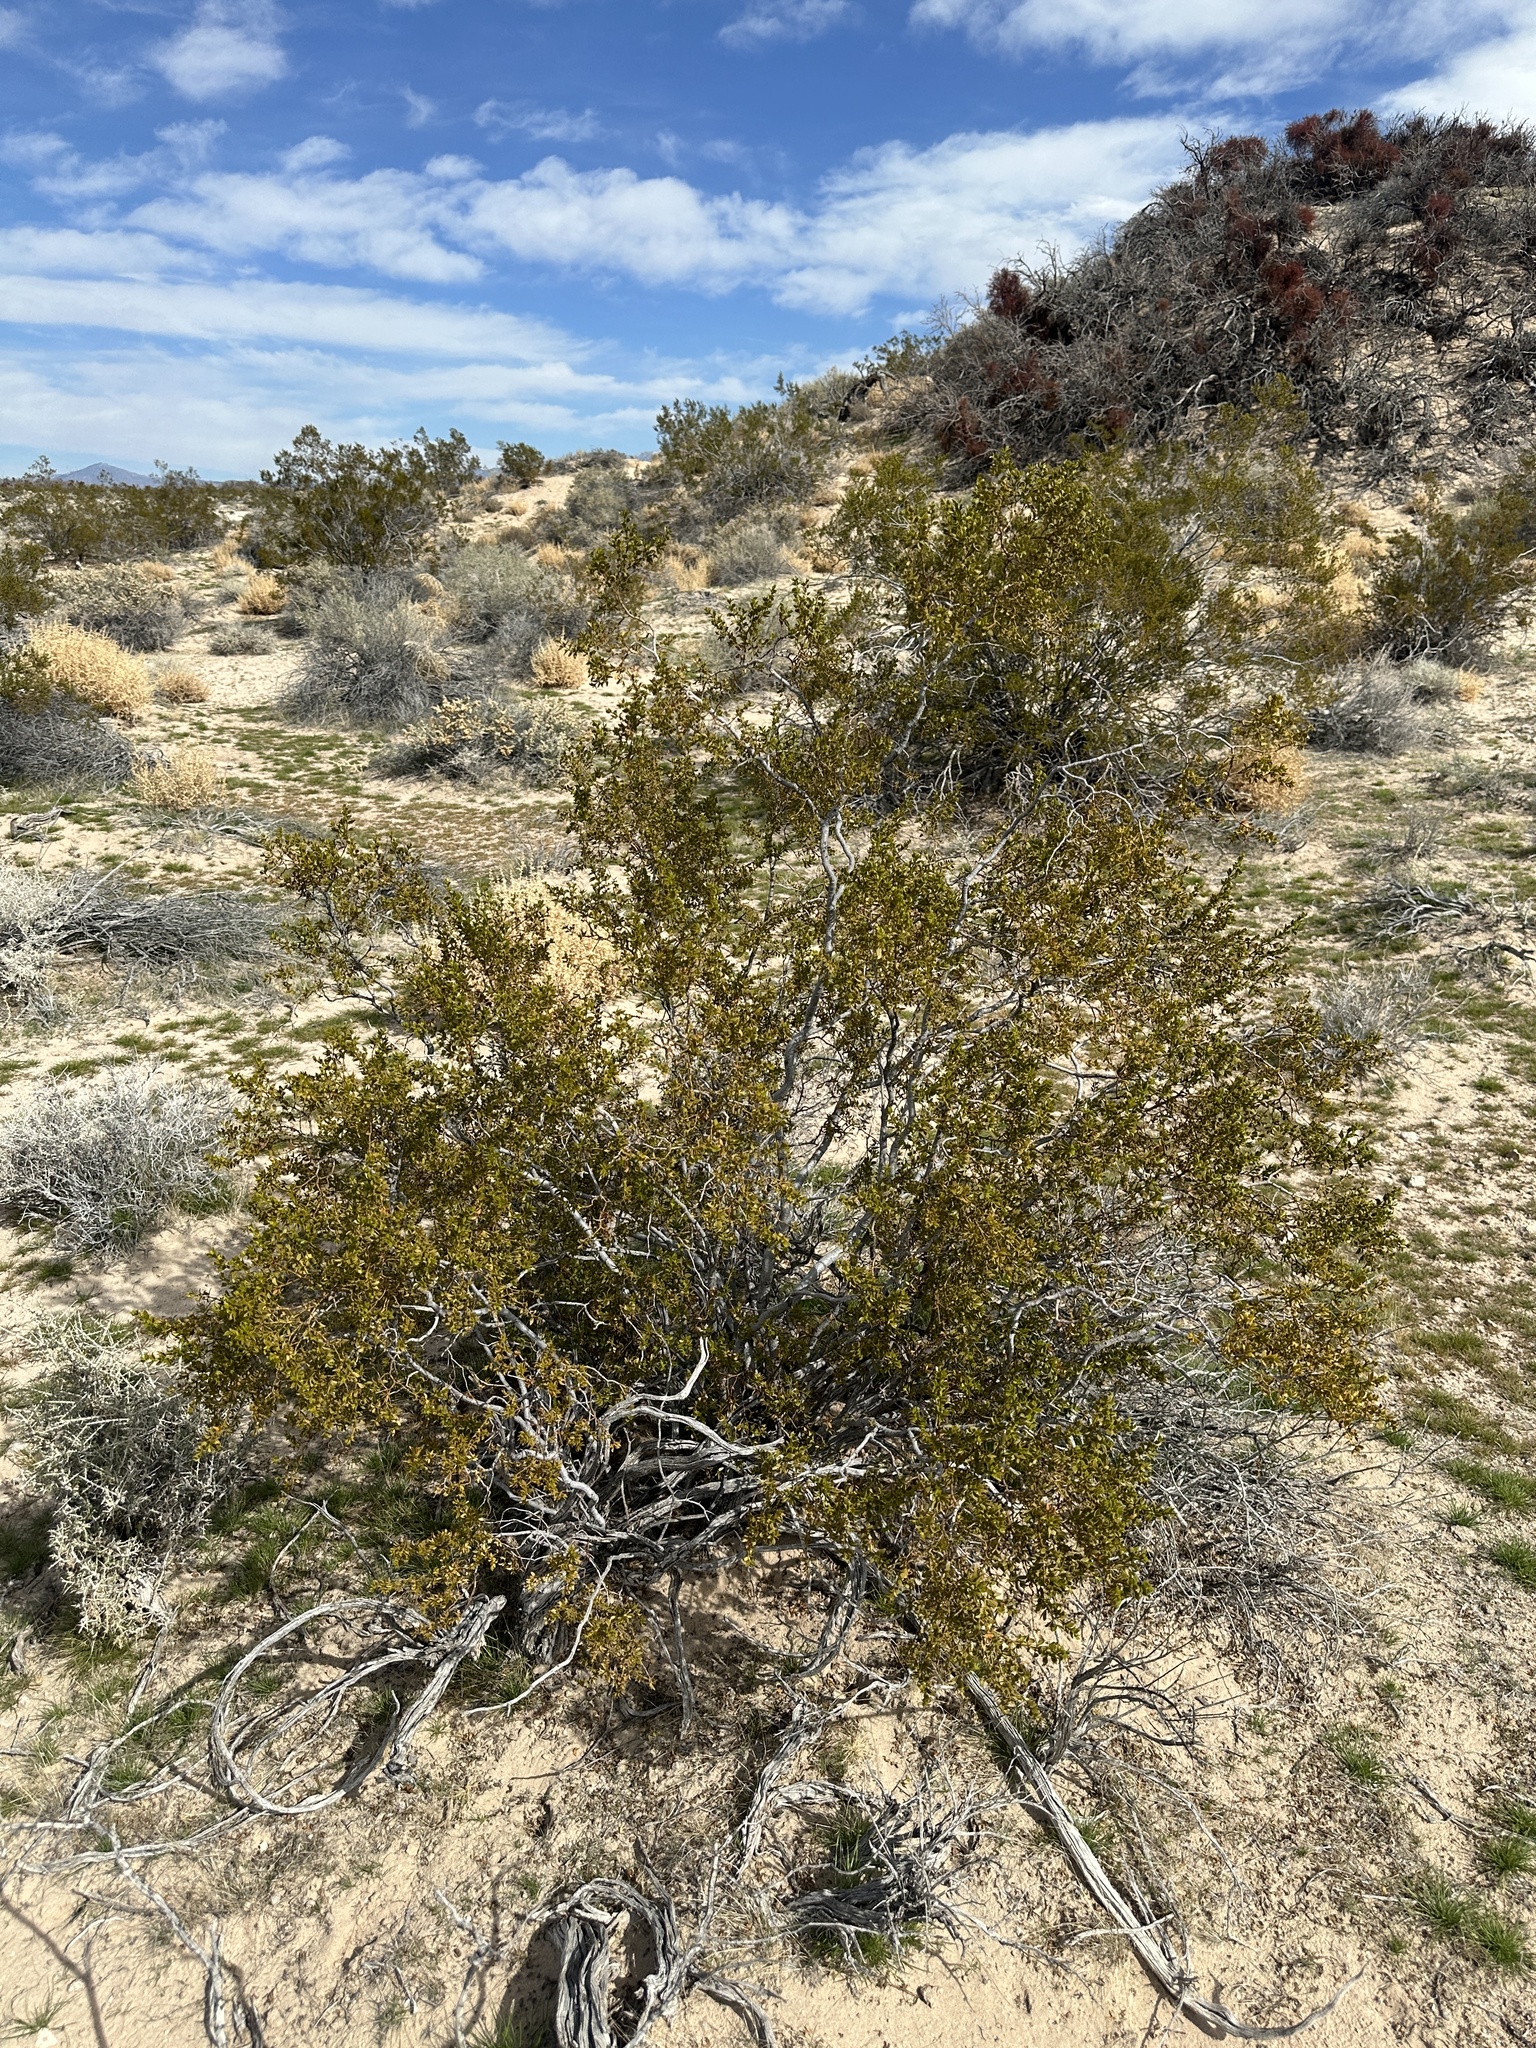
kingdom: Plantae
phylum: Tracheophyta
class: Magnoliopsida
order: Zygophyllales
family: Zygophyllaceae
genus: Larrea
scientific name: Larrea tridentata
